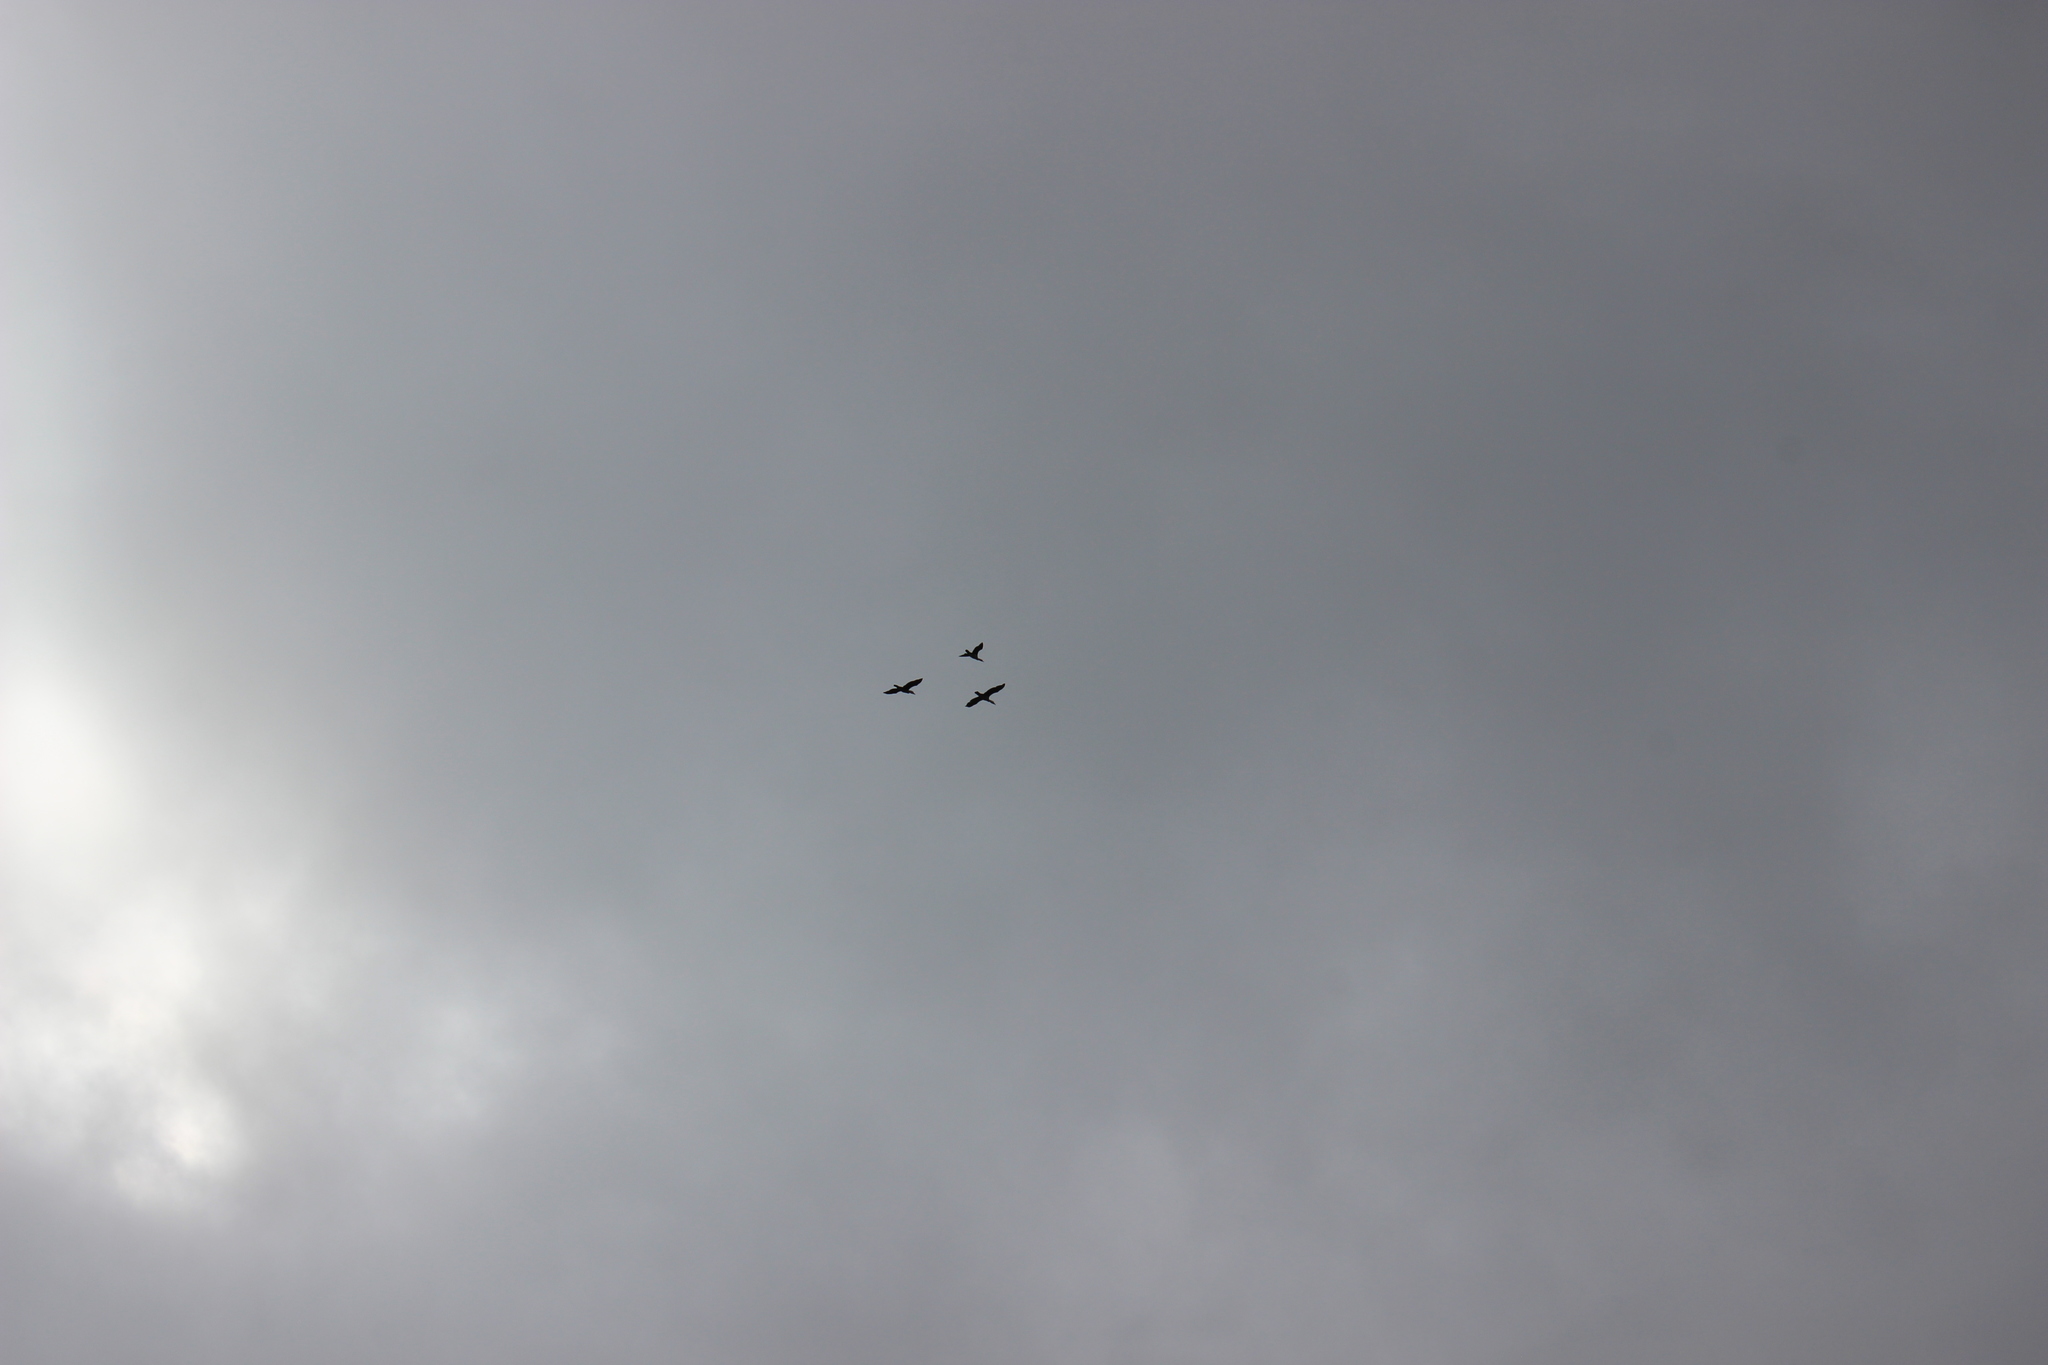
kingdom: Animalia
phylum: Chordata
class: Aves
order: Suliformes
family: Phalacrocoracidae
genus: Phalacrocorax
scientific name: Phalacrocorax varius
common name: Pied cormorant
